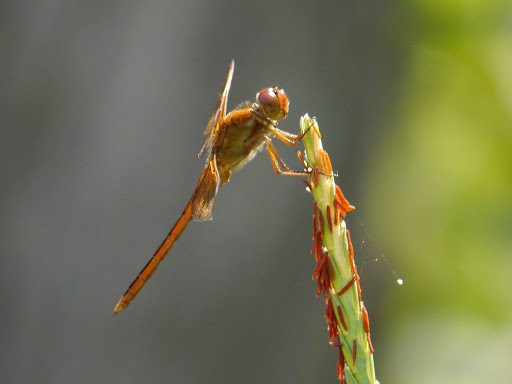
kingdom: Animalia
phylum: Arthropoda
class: Insecta
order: Odonata
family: Libellulidae
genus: Libellula
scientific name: Libellula needhami
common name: Needham's skimmer
